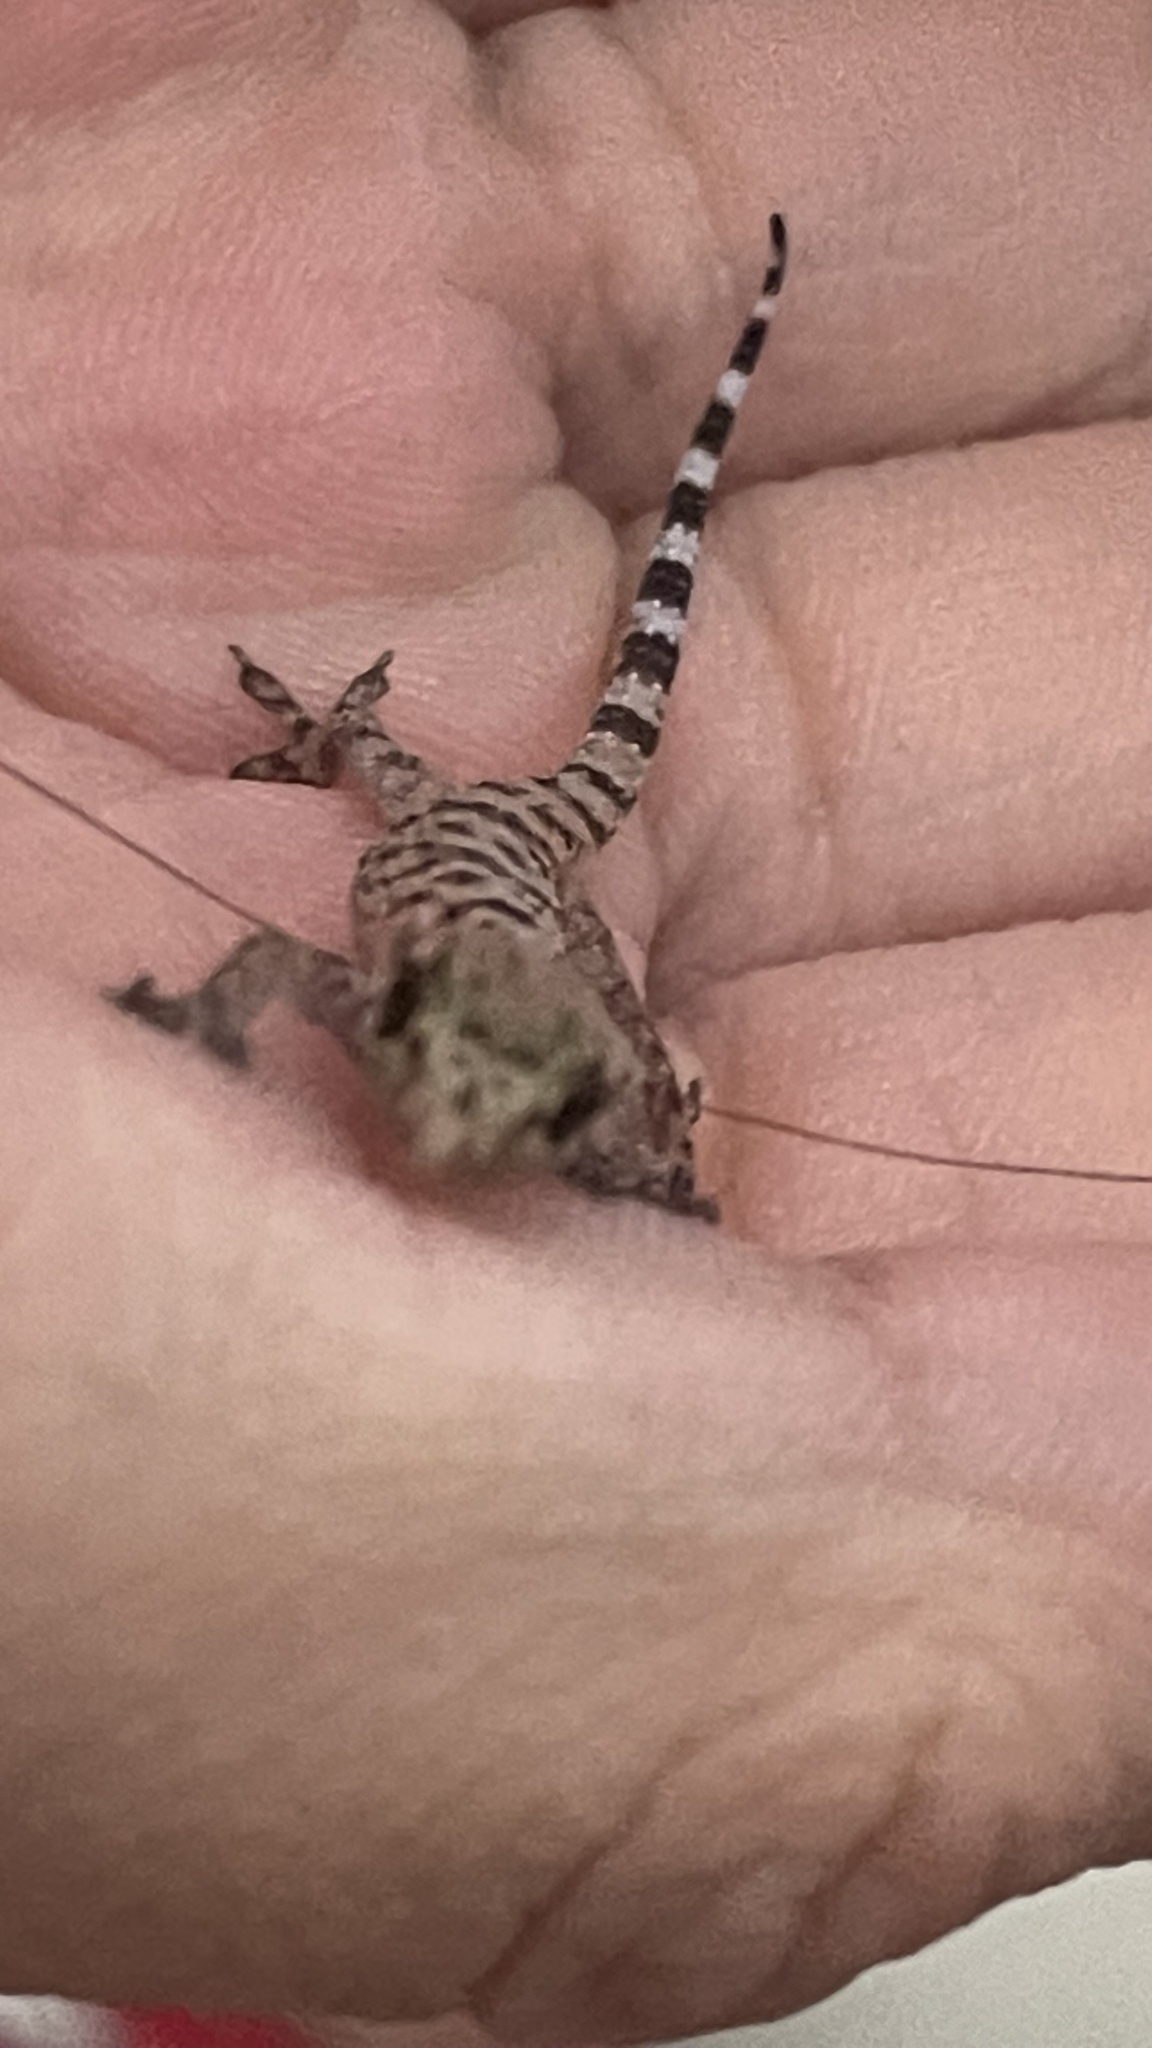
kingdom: Animalia
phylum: Chordata
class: Squamata
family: Gekkonidae
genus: Hemidactylus
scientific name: Hemidactylus turcicus
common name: Turkish gecko
